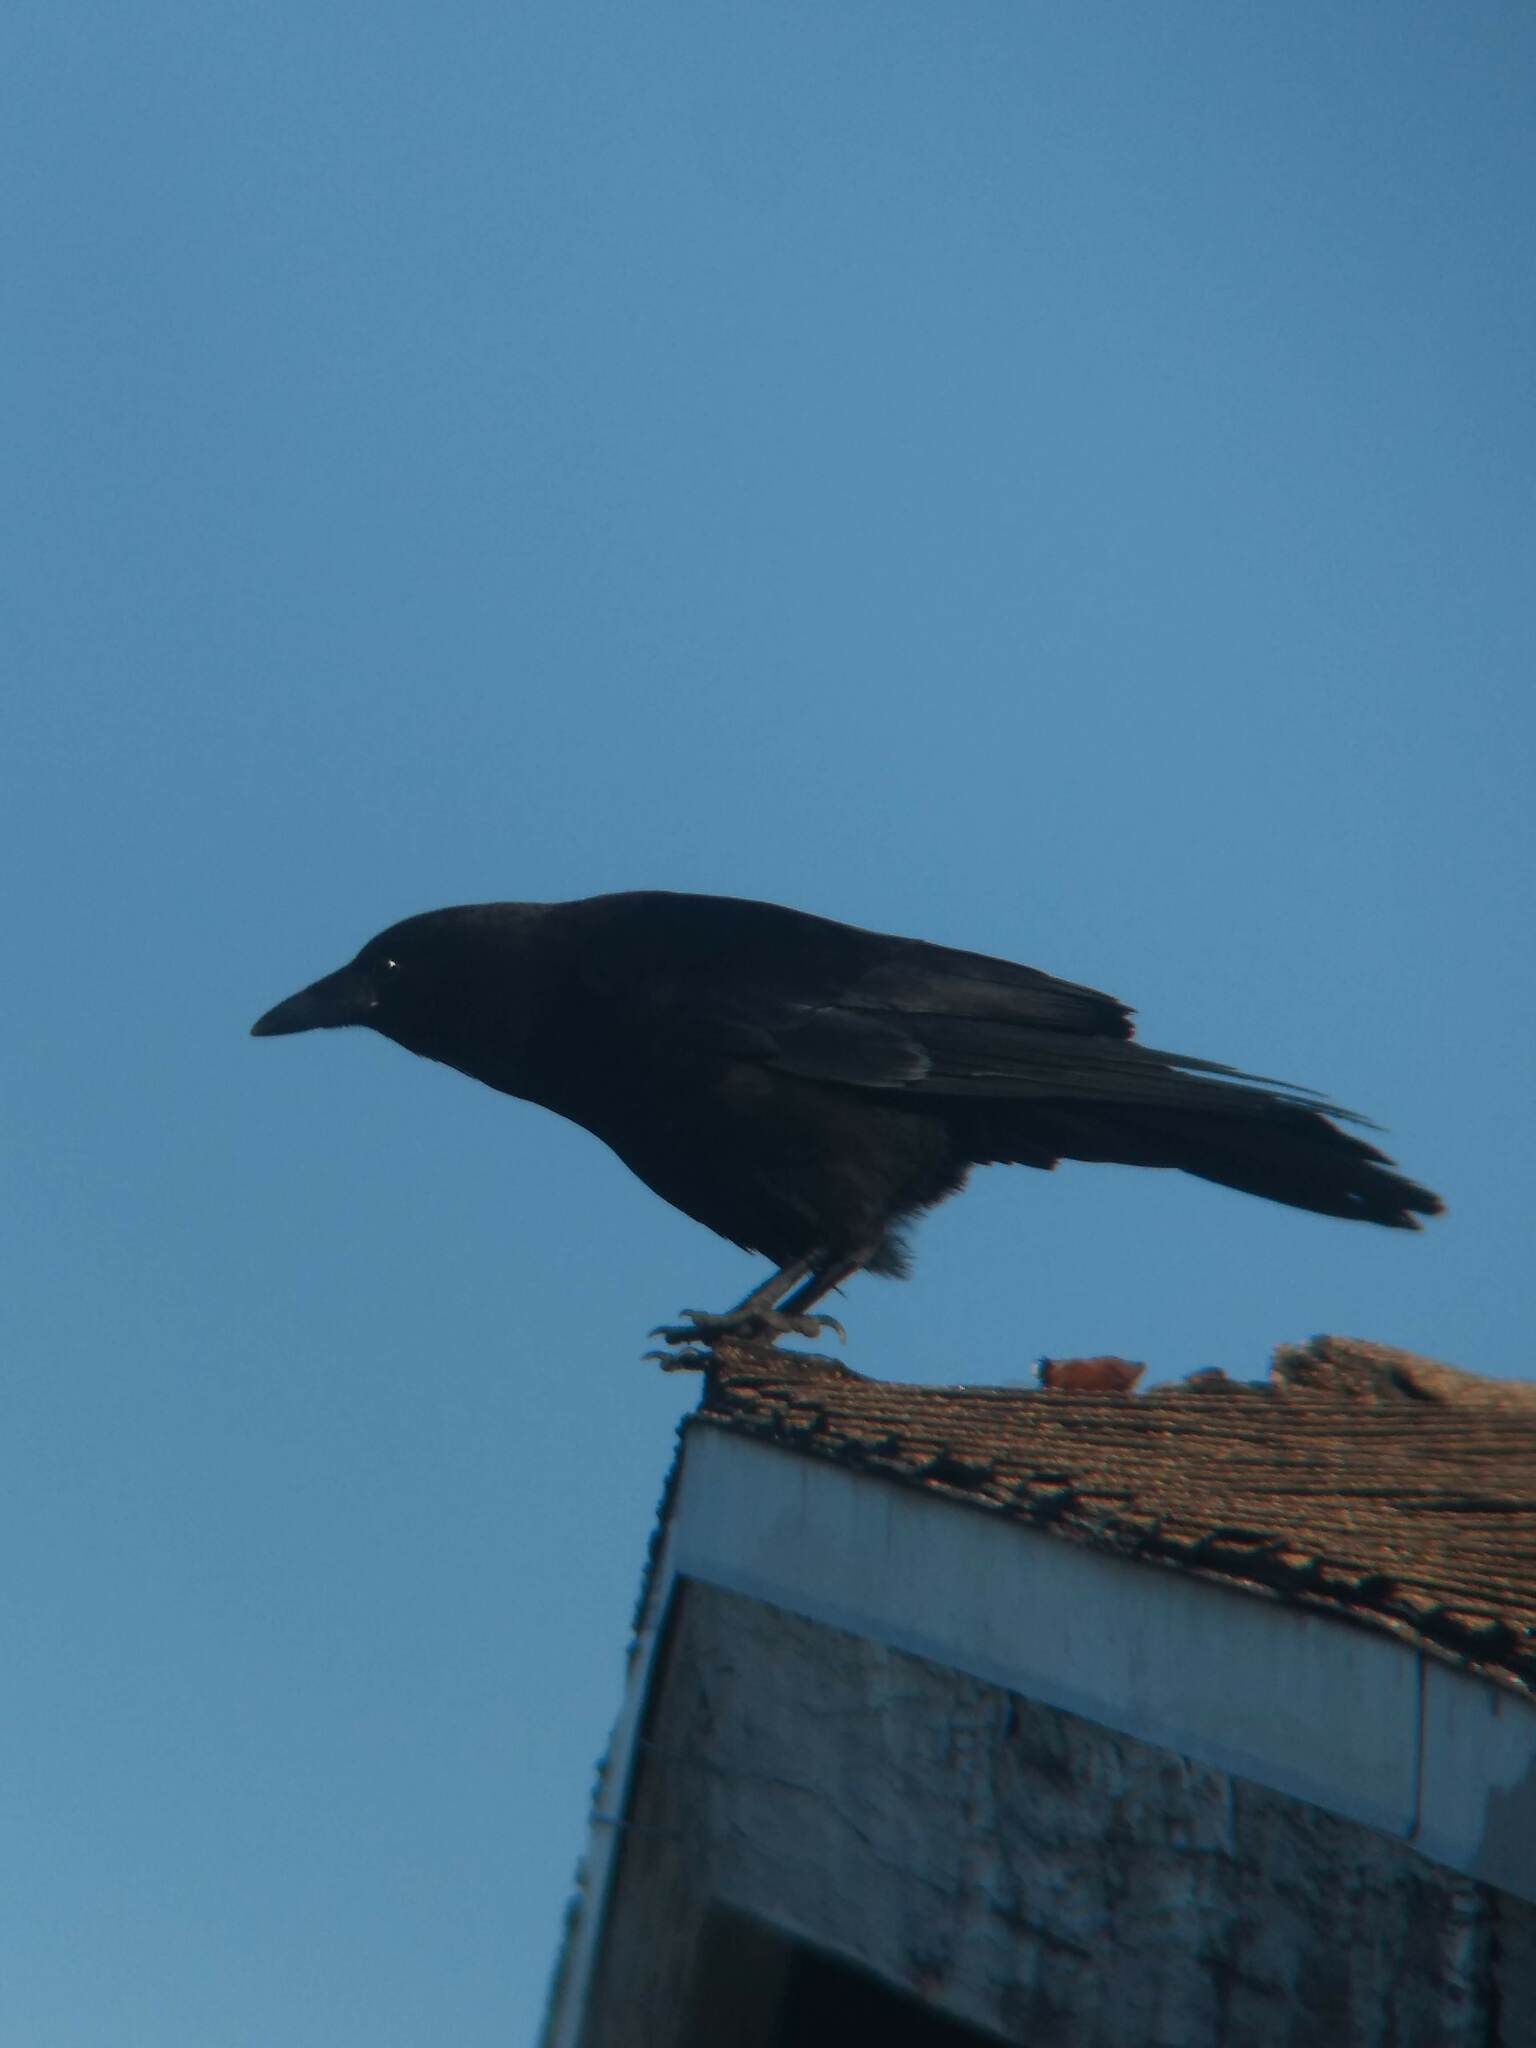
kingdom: Animalia
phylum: Chordata
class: Aves
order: Passeriformes
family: Corvidae
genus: Corvus
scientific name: Corvus brachyrhynchos
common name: American crow
